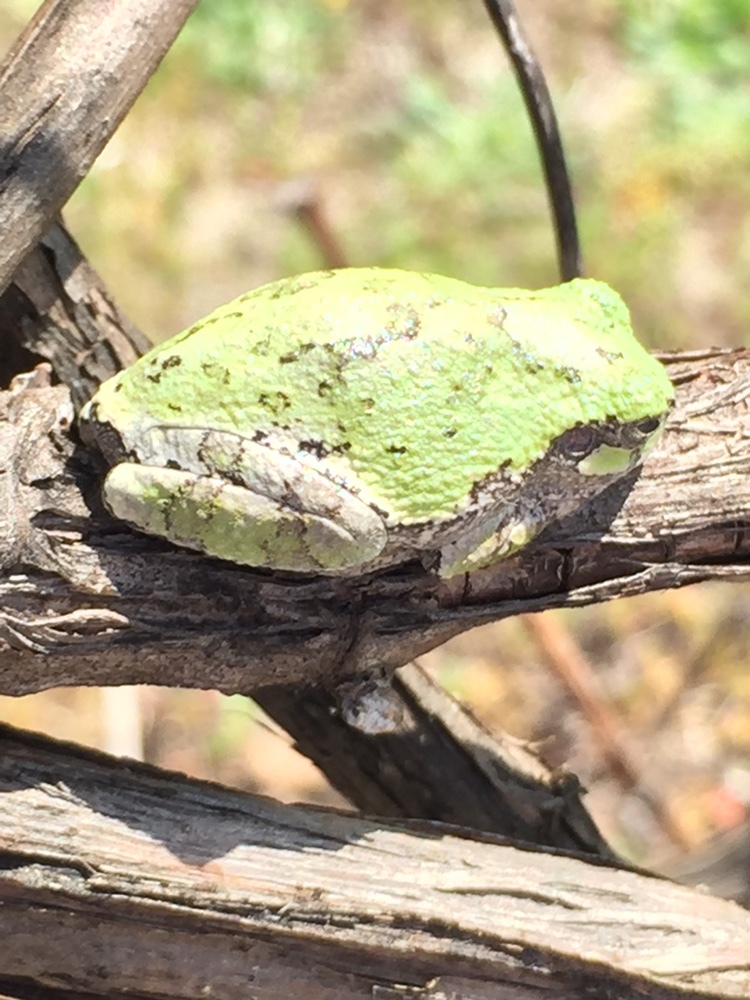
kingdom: Animalia
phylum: Chordata
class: Amphibia
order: Anura
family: Hylidae
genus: Hyla
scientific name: Hyla
